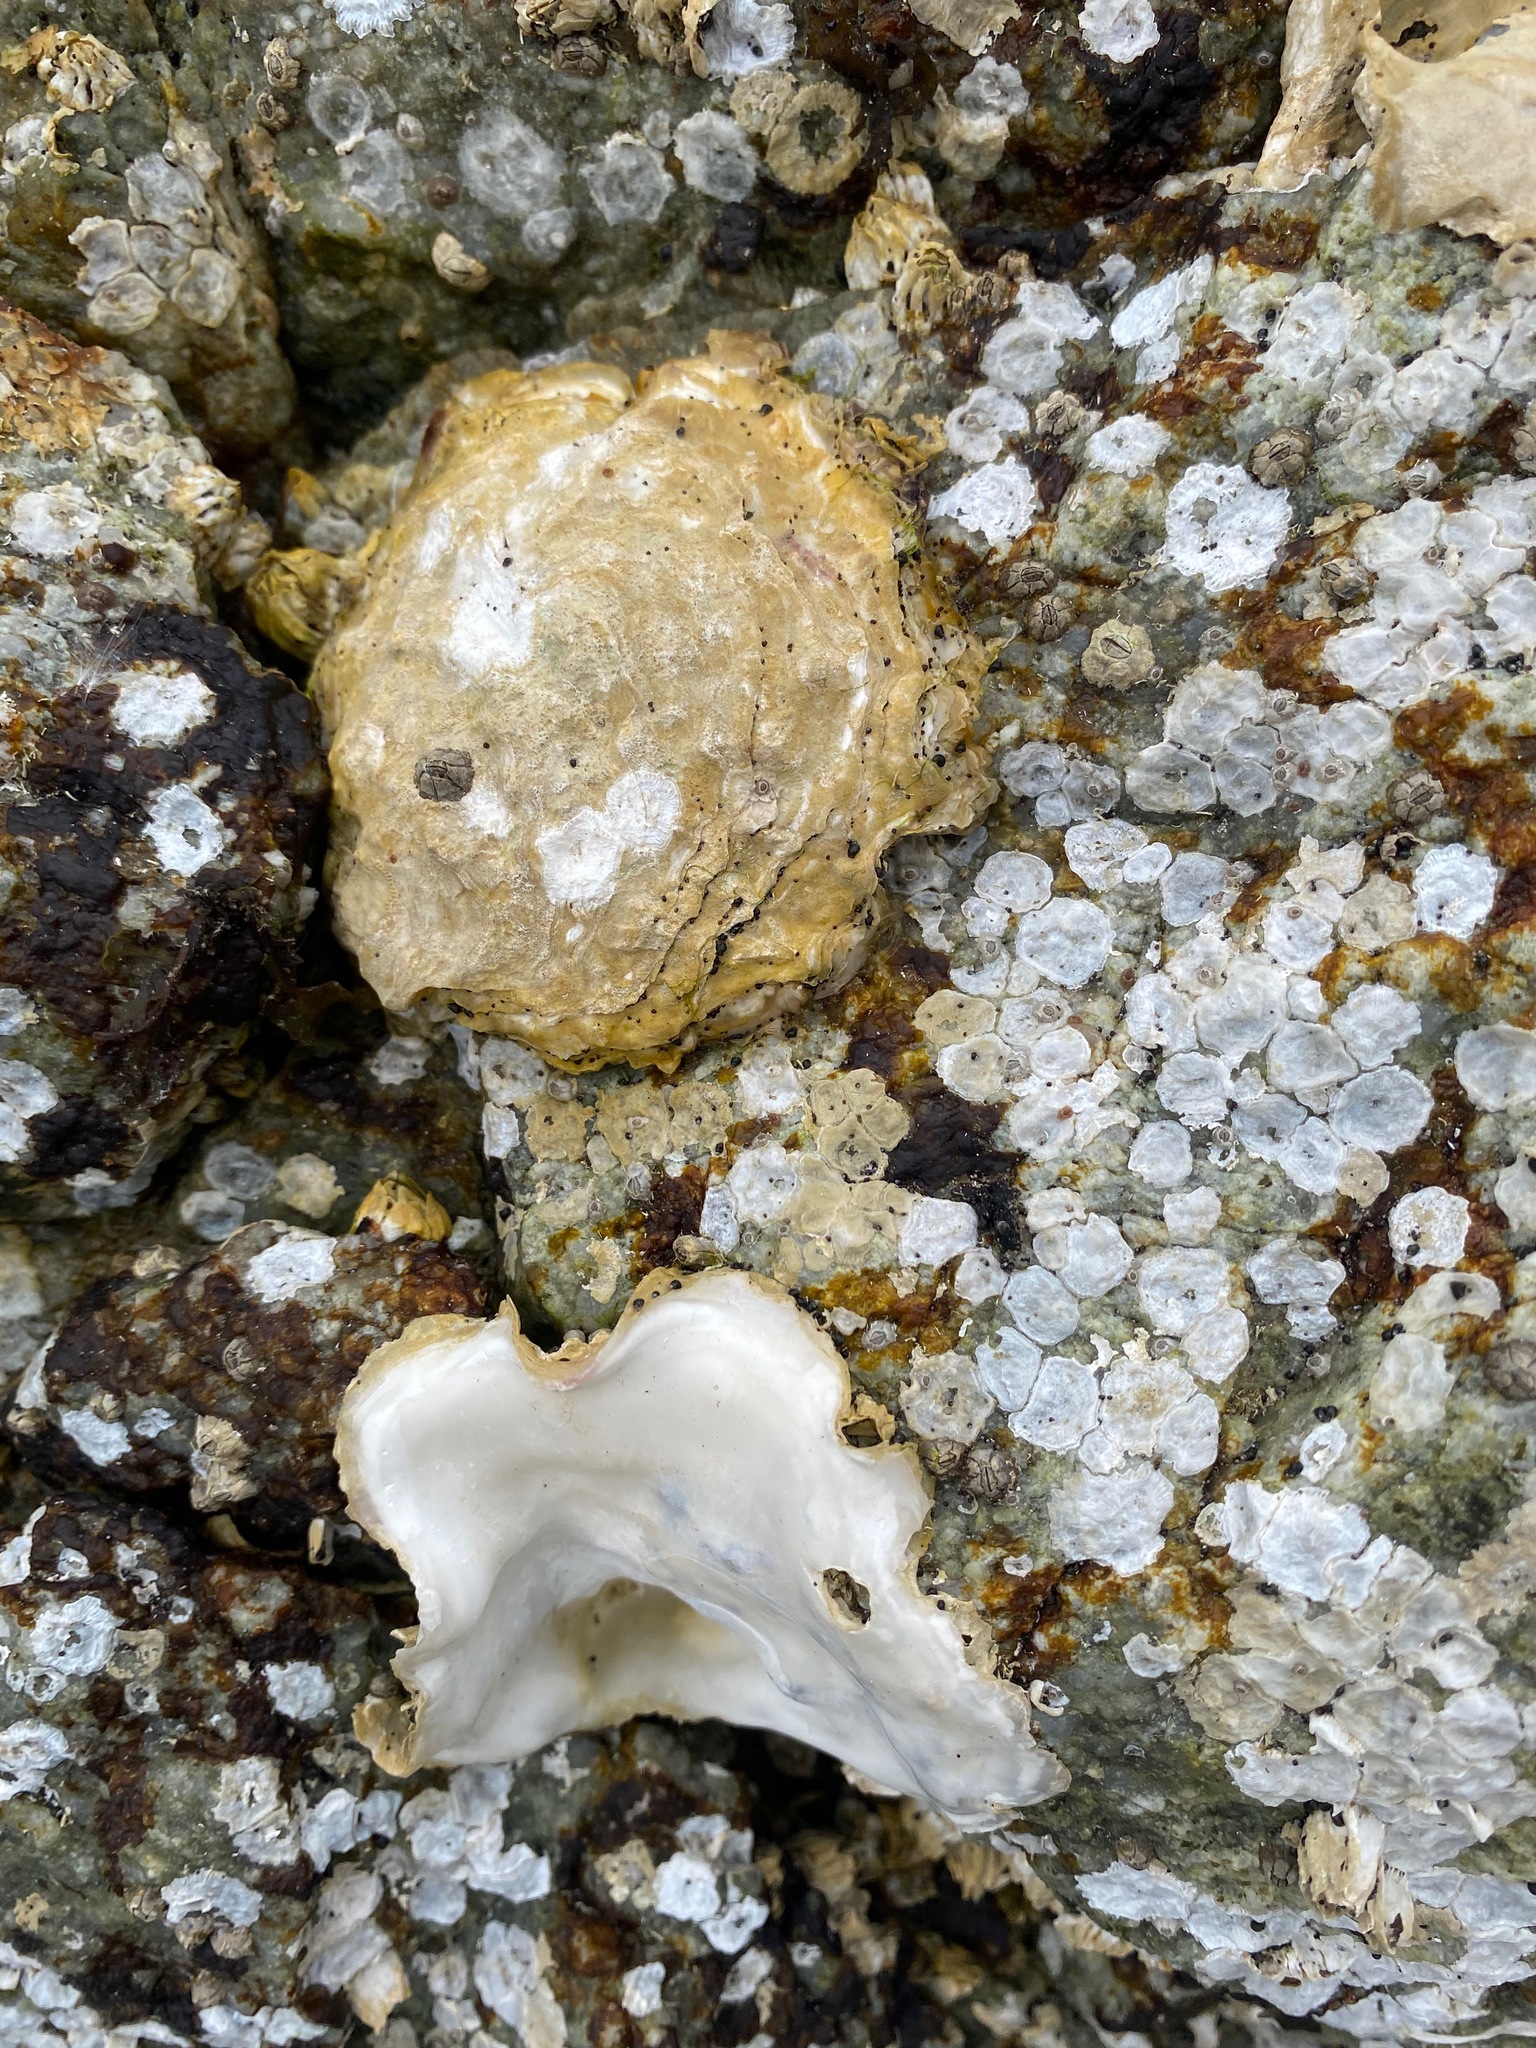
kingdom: Animalia
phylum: Mollusca
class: Bivalvia
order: Ostreida
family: Ostreidae
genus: Magallana
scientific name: Magallana gigas
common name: Pacific oyster
